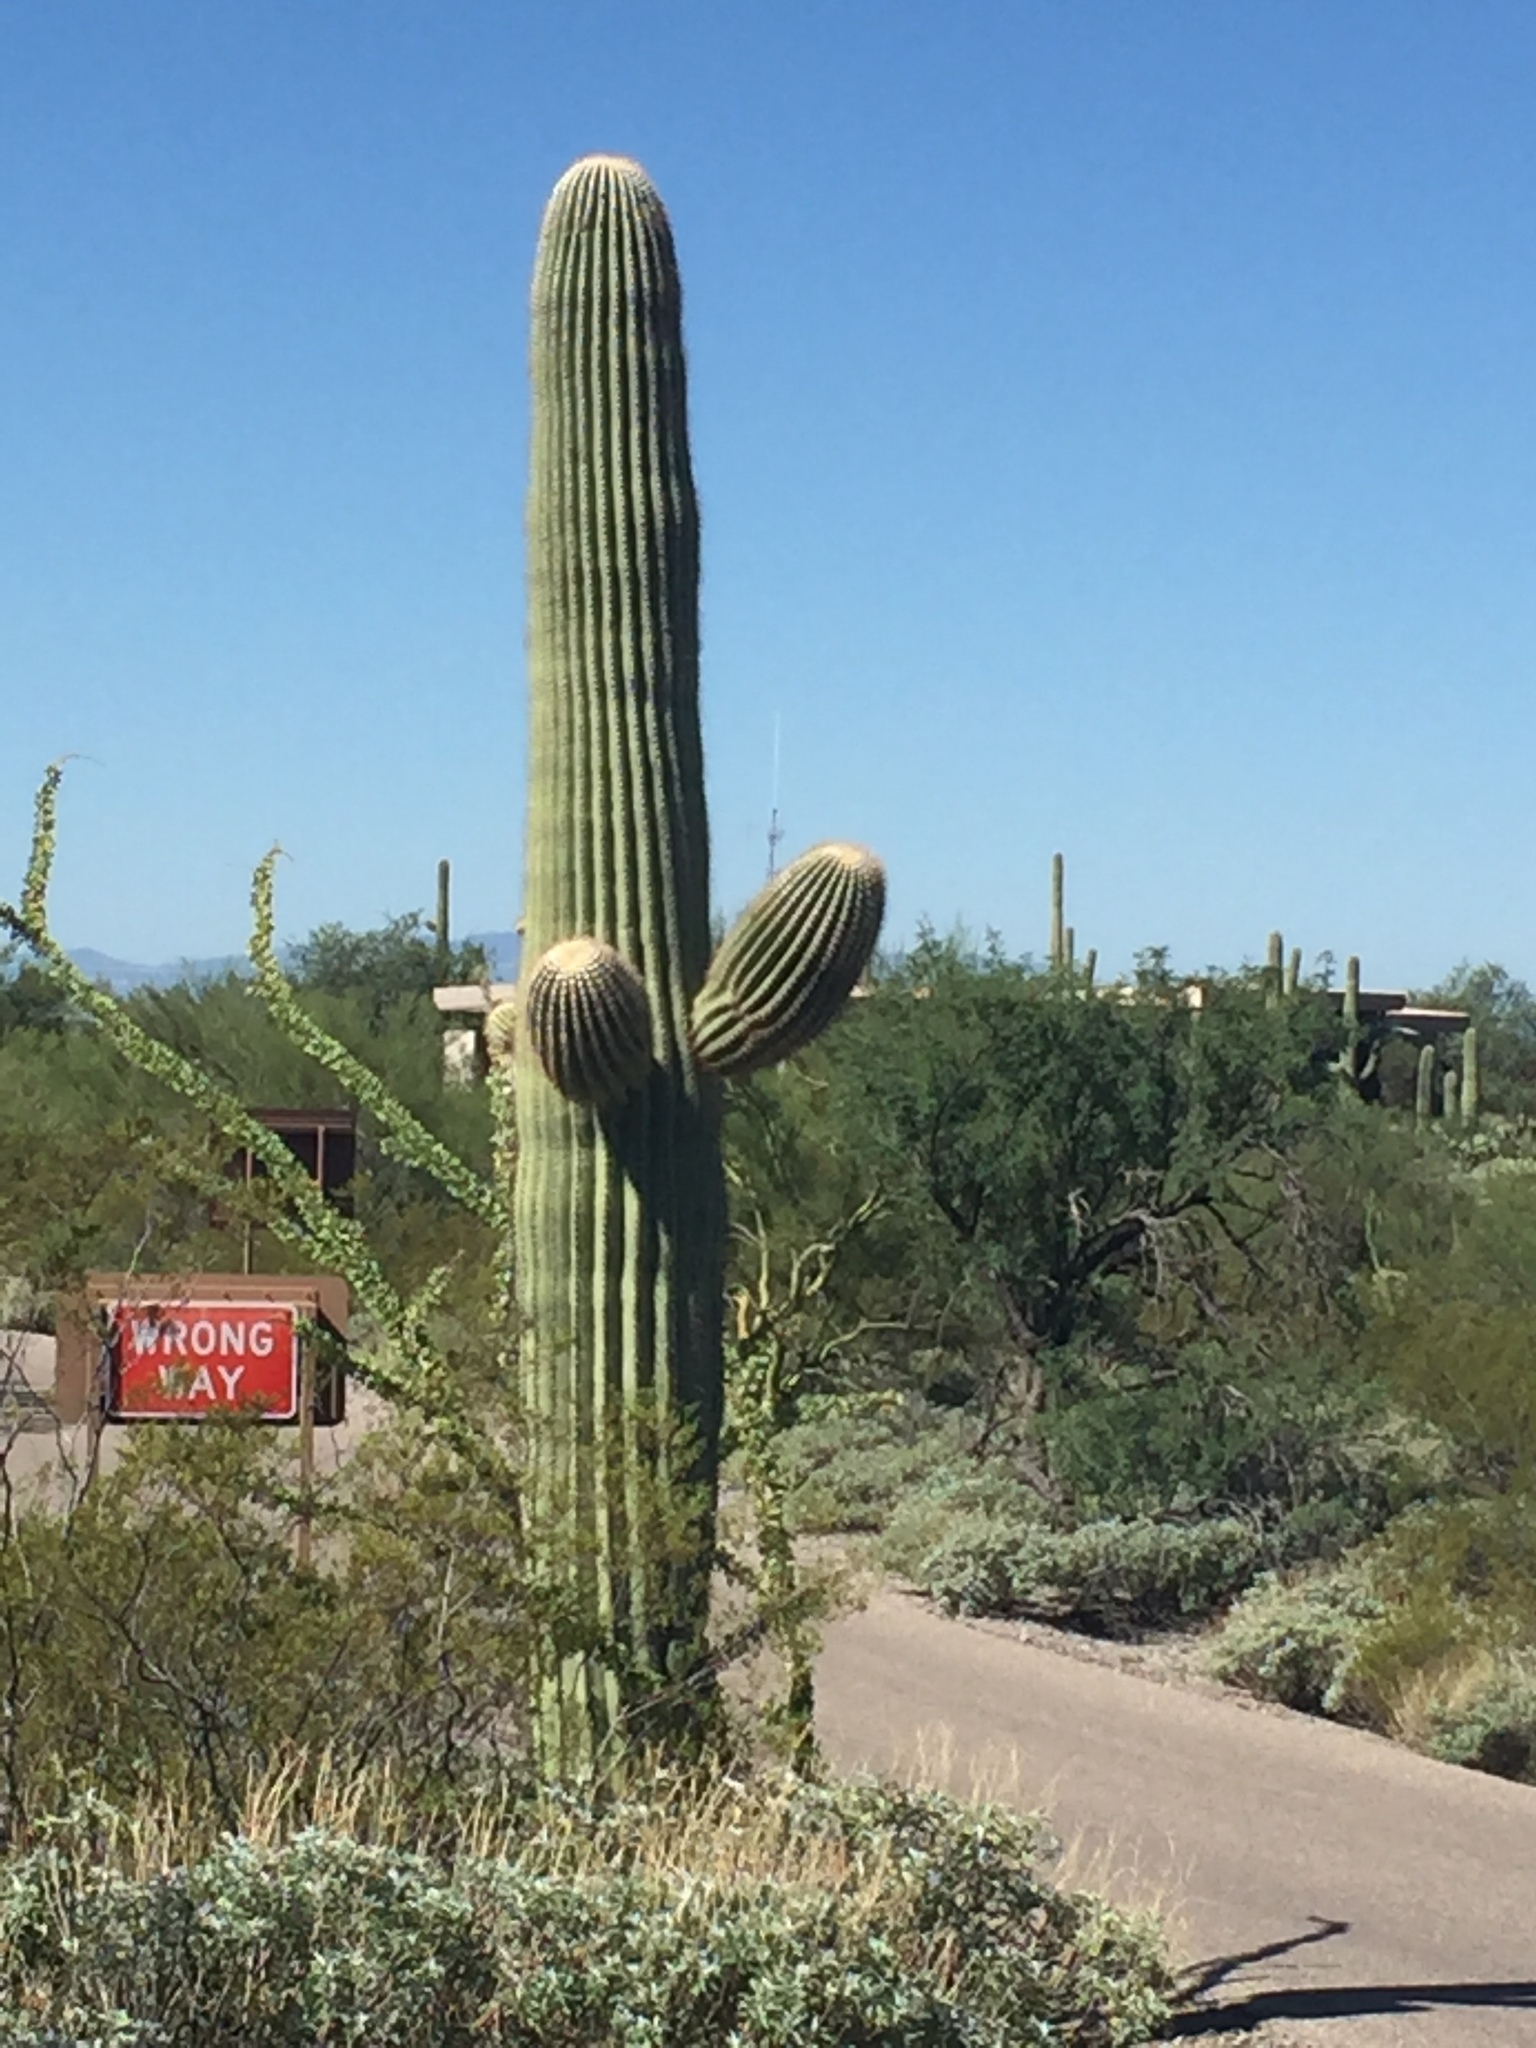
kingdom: Plantae
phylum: Tracheophyta
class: Magnoliopsida
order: Caryophyllales
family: Cactaceae
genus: Carnegiea
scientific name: Carnegiea gigantea
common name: Saguaro
